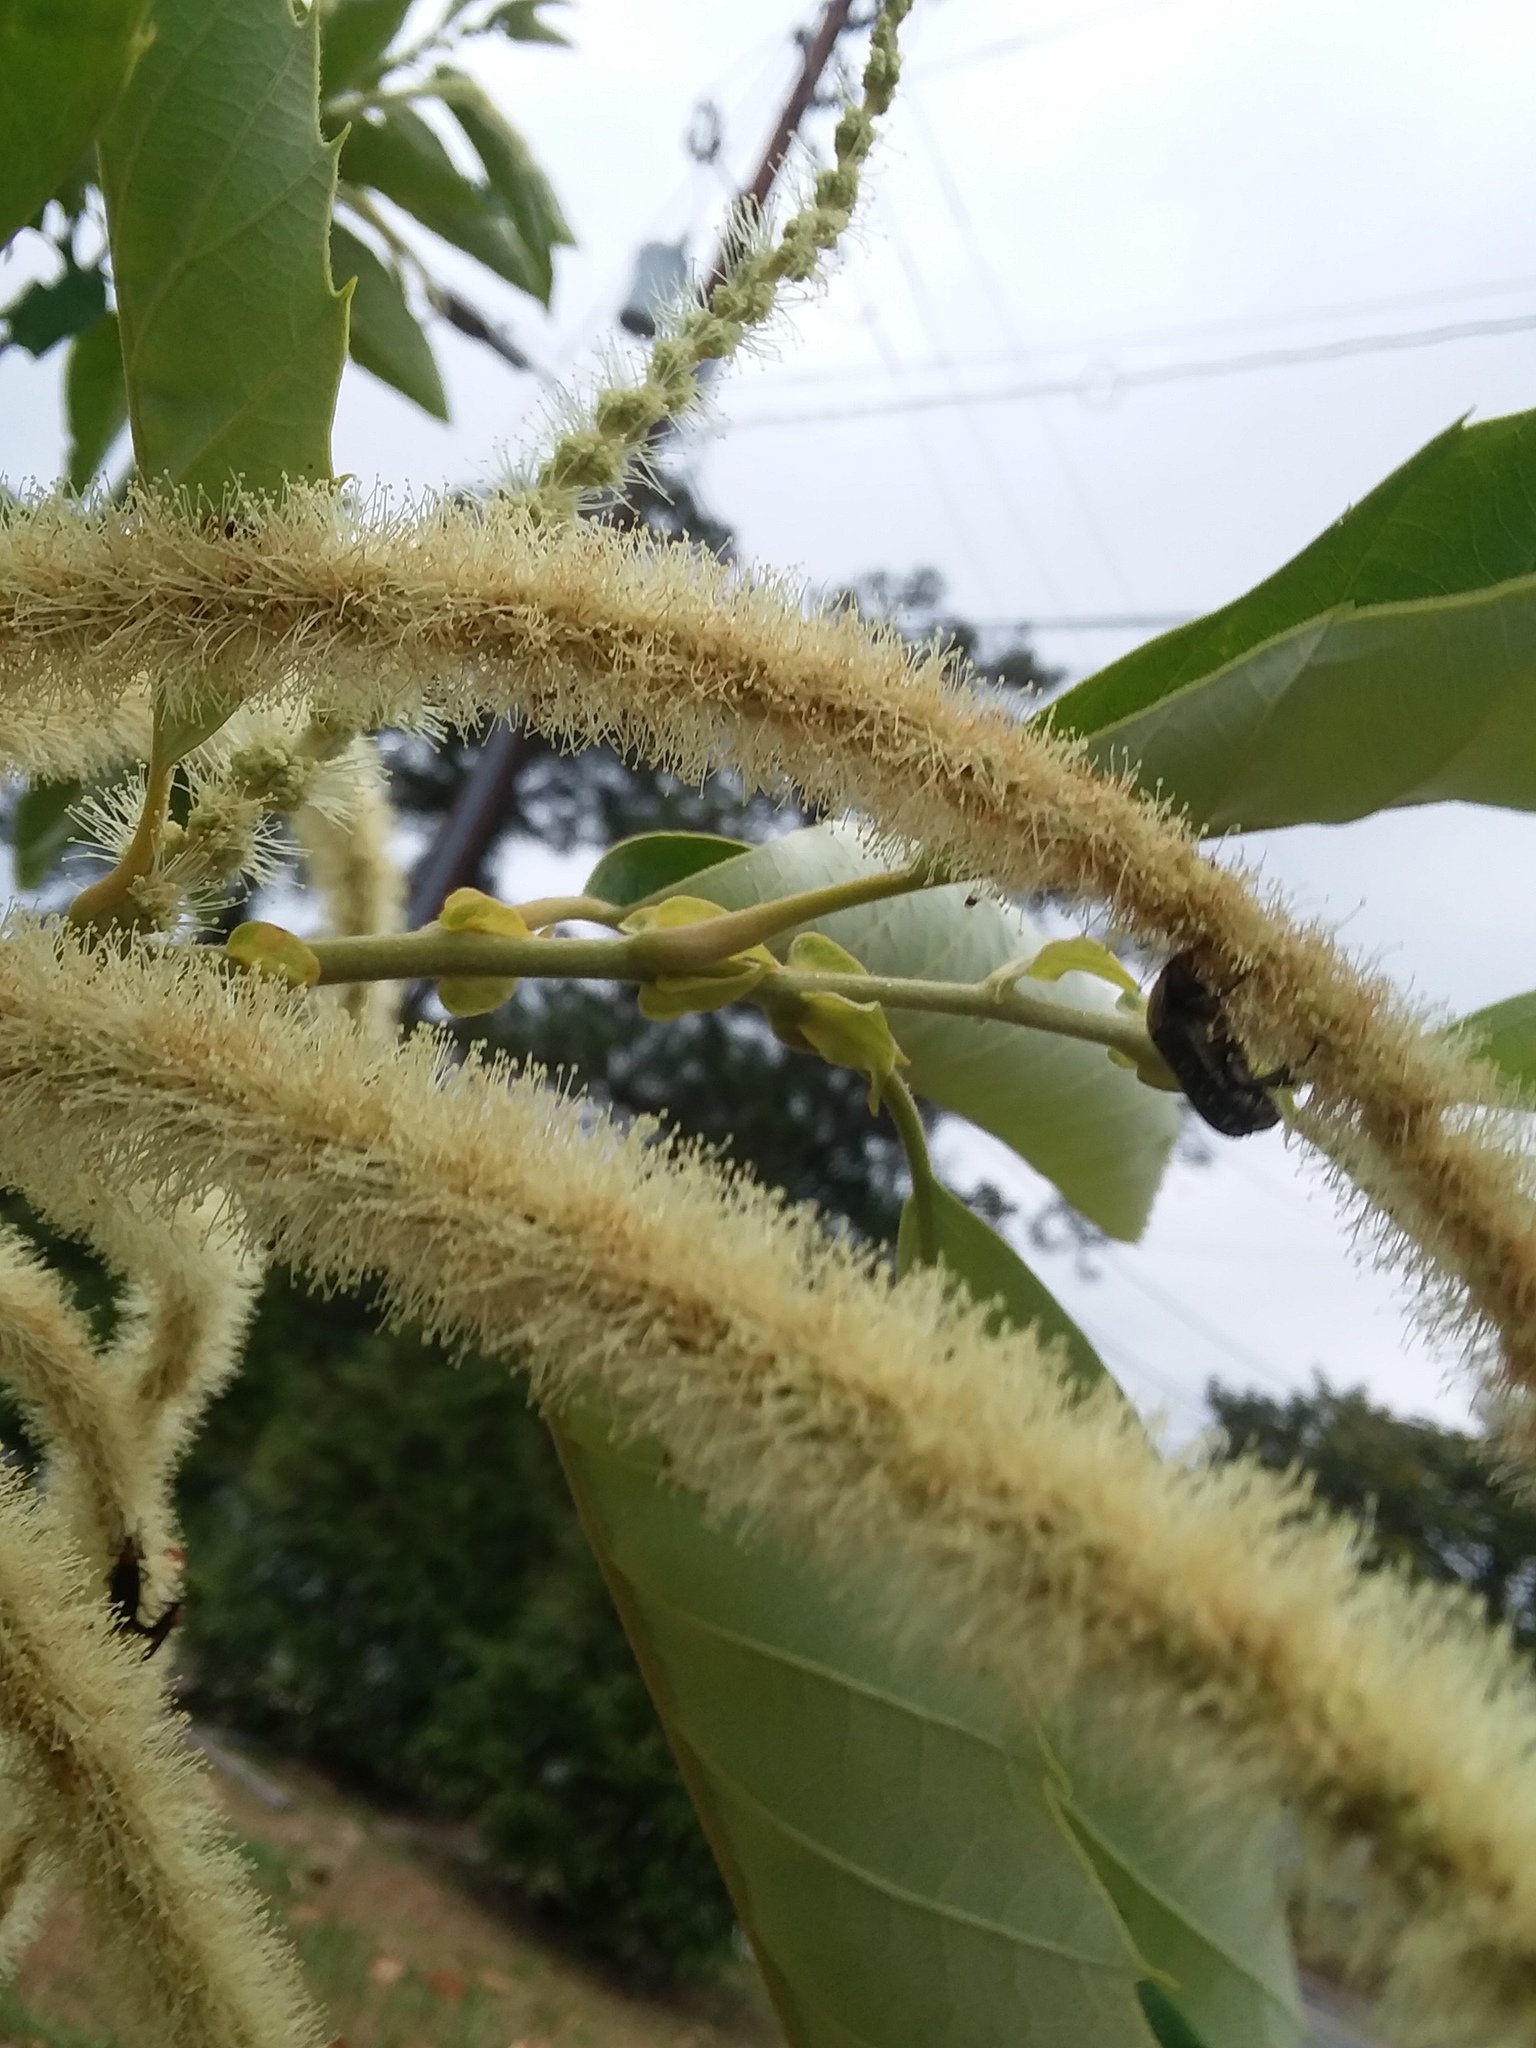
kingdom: Animalia
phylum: Arthropoda
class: Insecta
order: Coleoptera
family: Scarabaeidae
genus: Euphoria
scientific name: Euphoria sepulcralis
